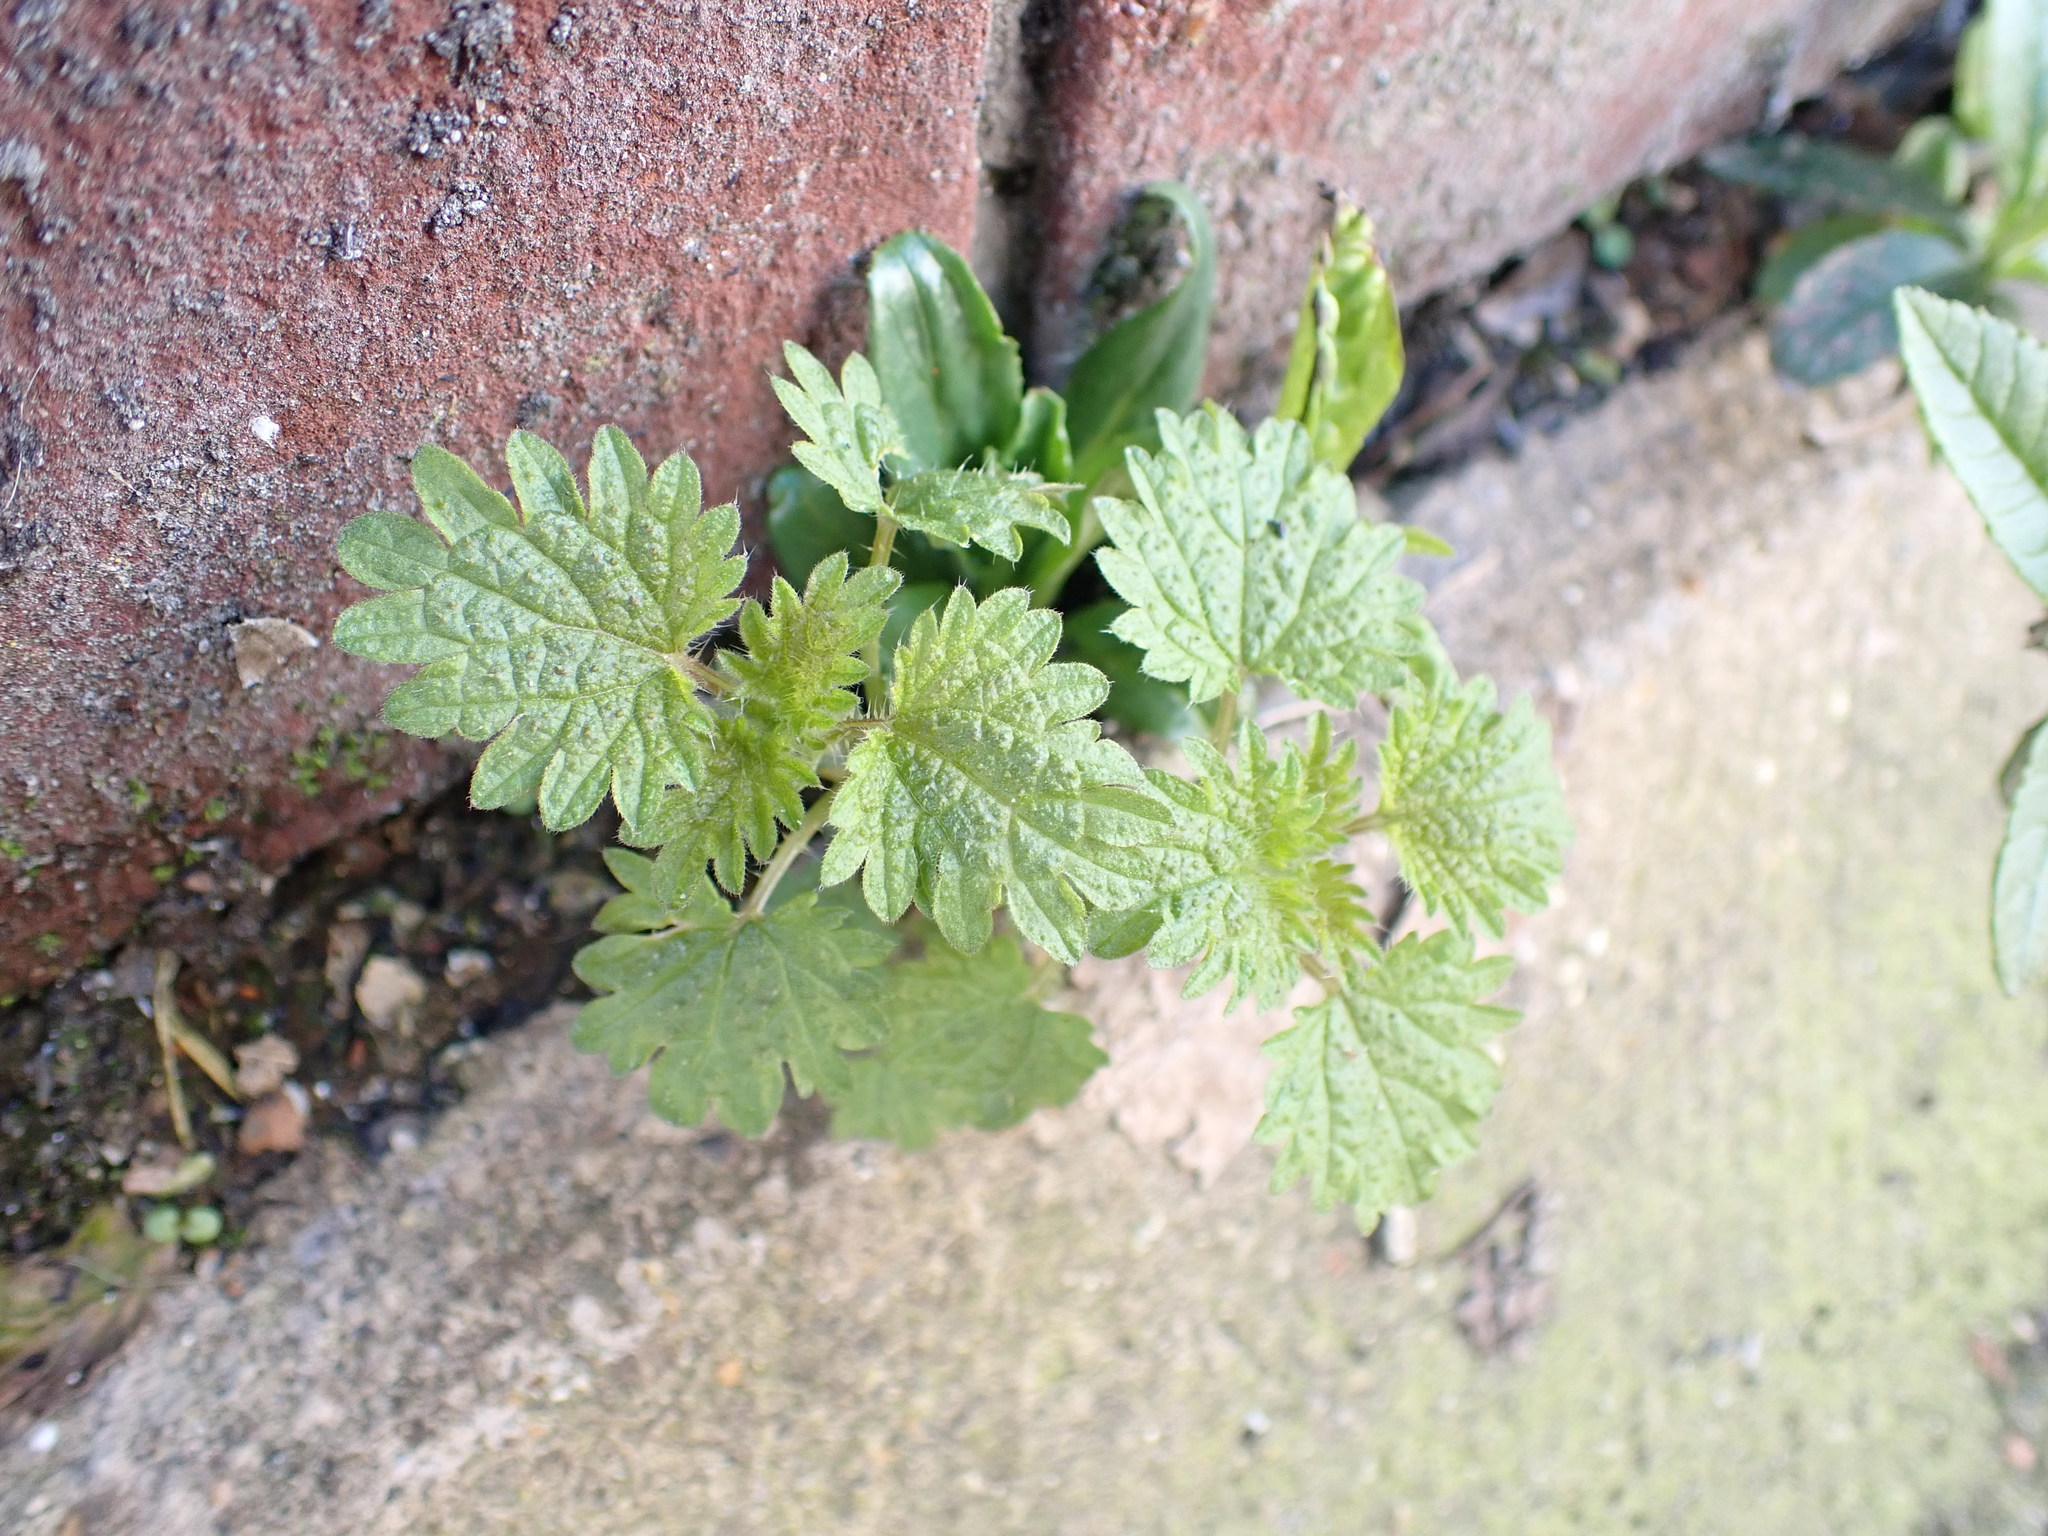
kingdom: Plantae
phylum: Tracheophyta
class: Magnoliopsida
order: Rosales
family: Urticaceae
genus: Urtica
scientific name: Urtica dioica
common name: Common nettle
